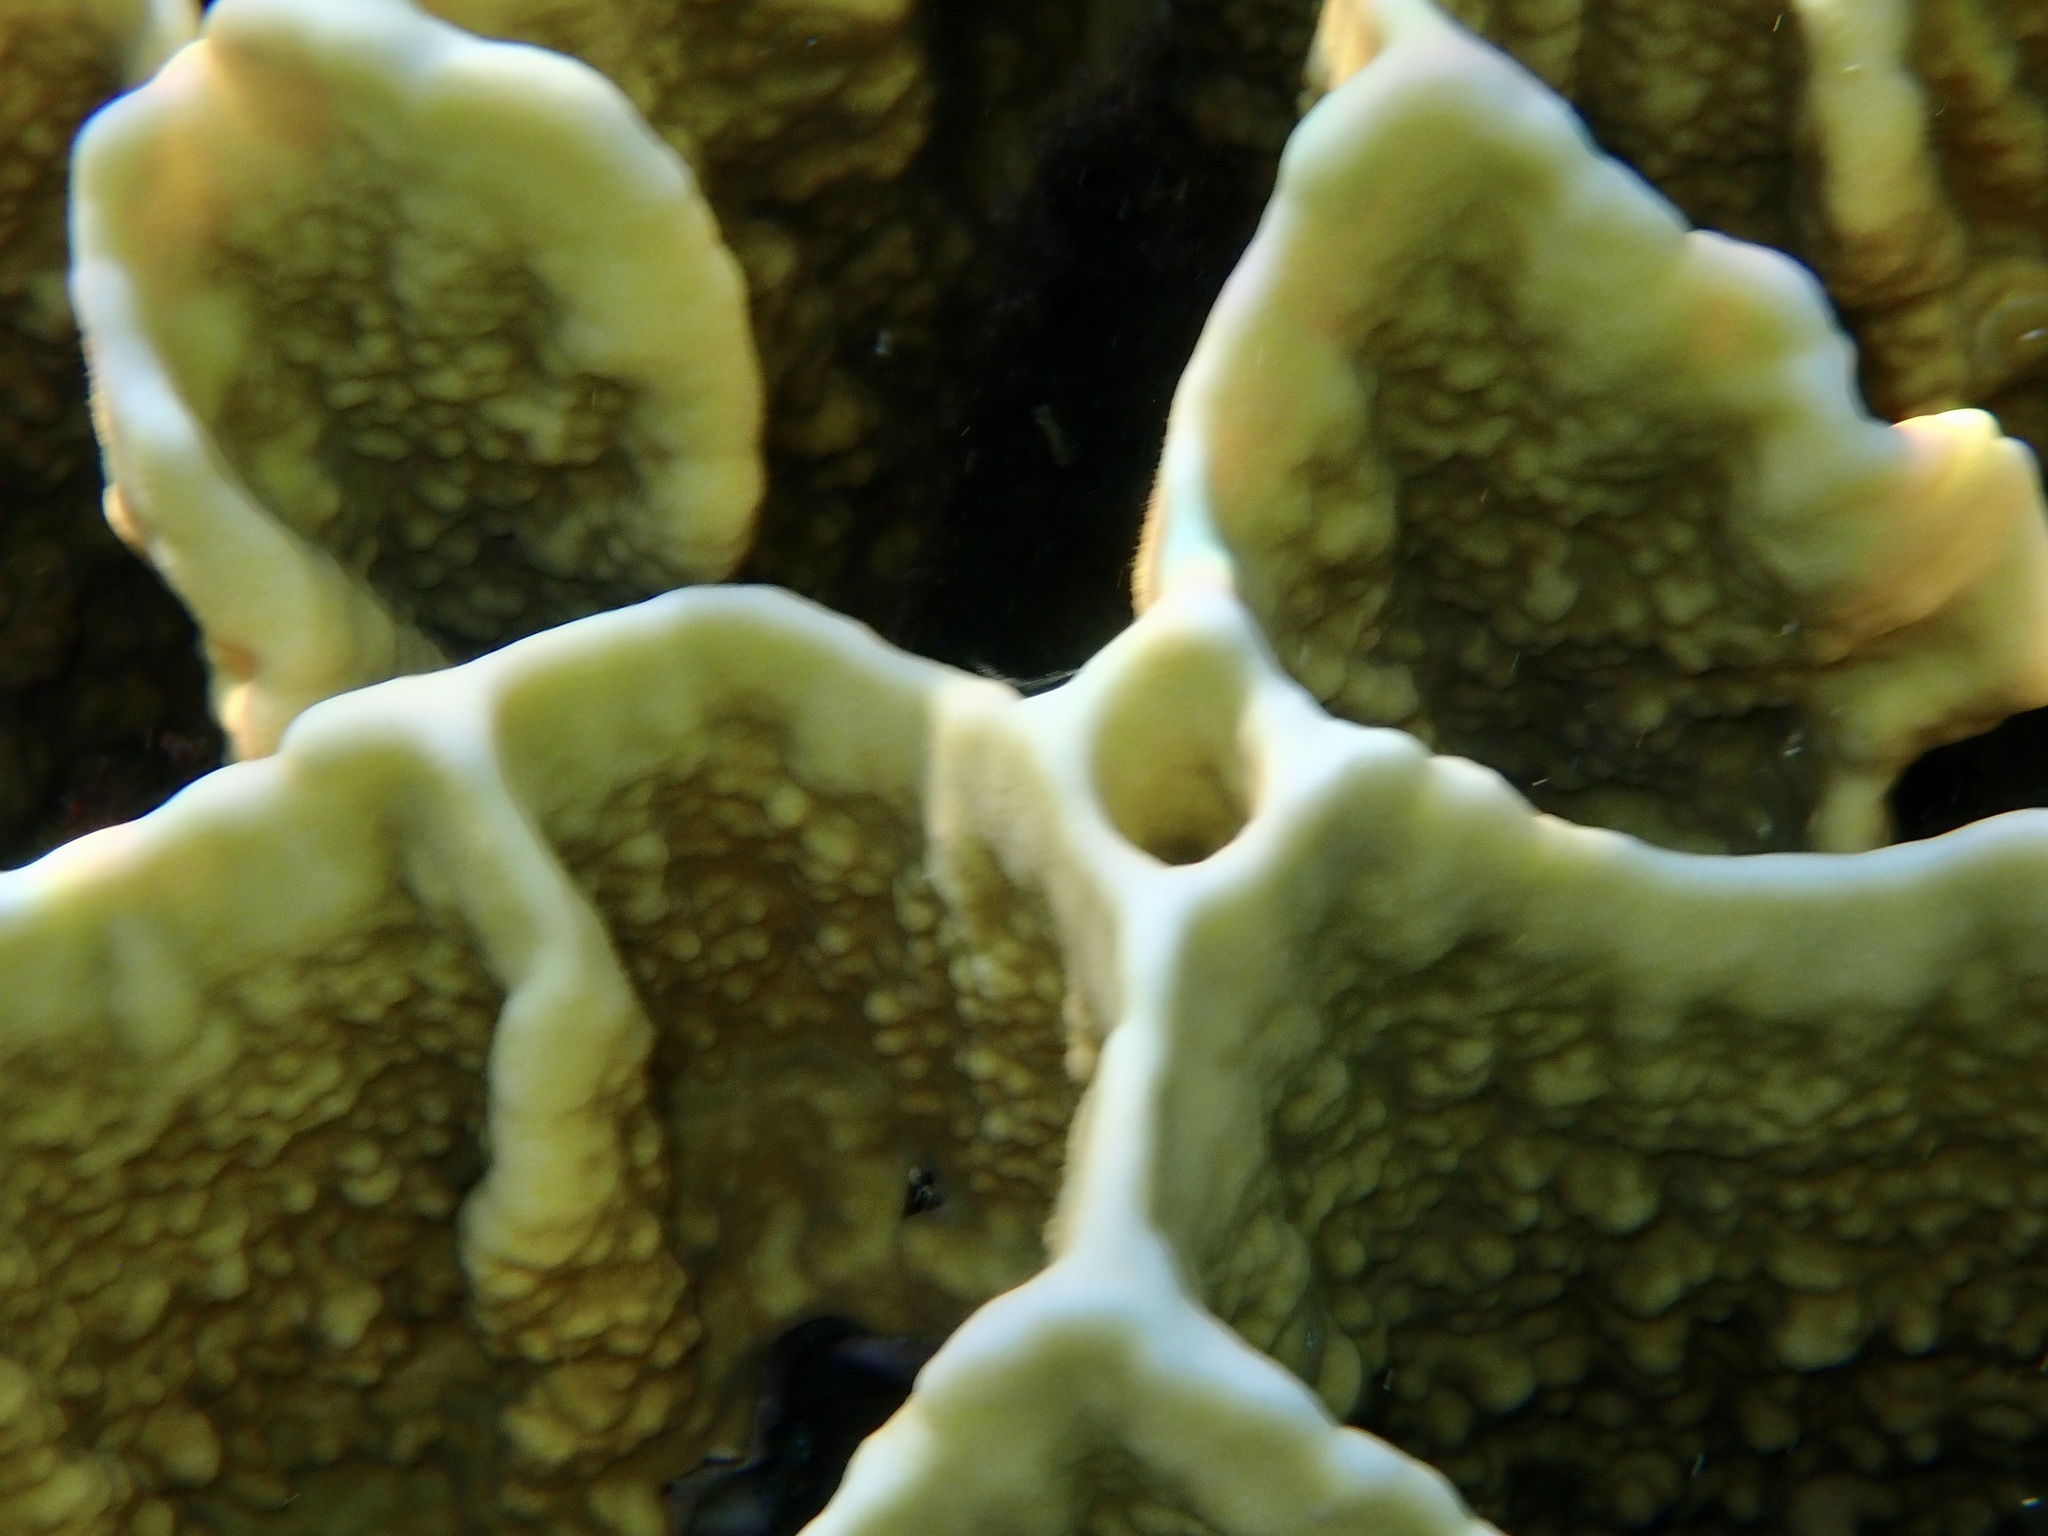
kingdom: Animalia
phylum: Cnidaria
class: Hydrozoa
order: Anthoathecata
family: Milleporidae
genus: Millepora
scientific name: Millepora platyphylla
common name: Sheet fire coral
